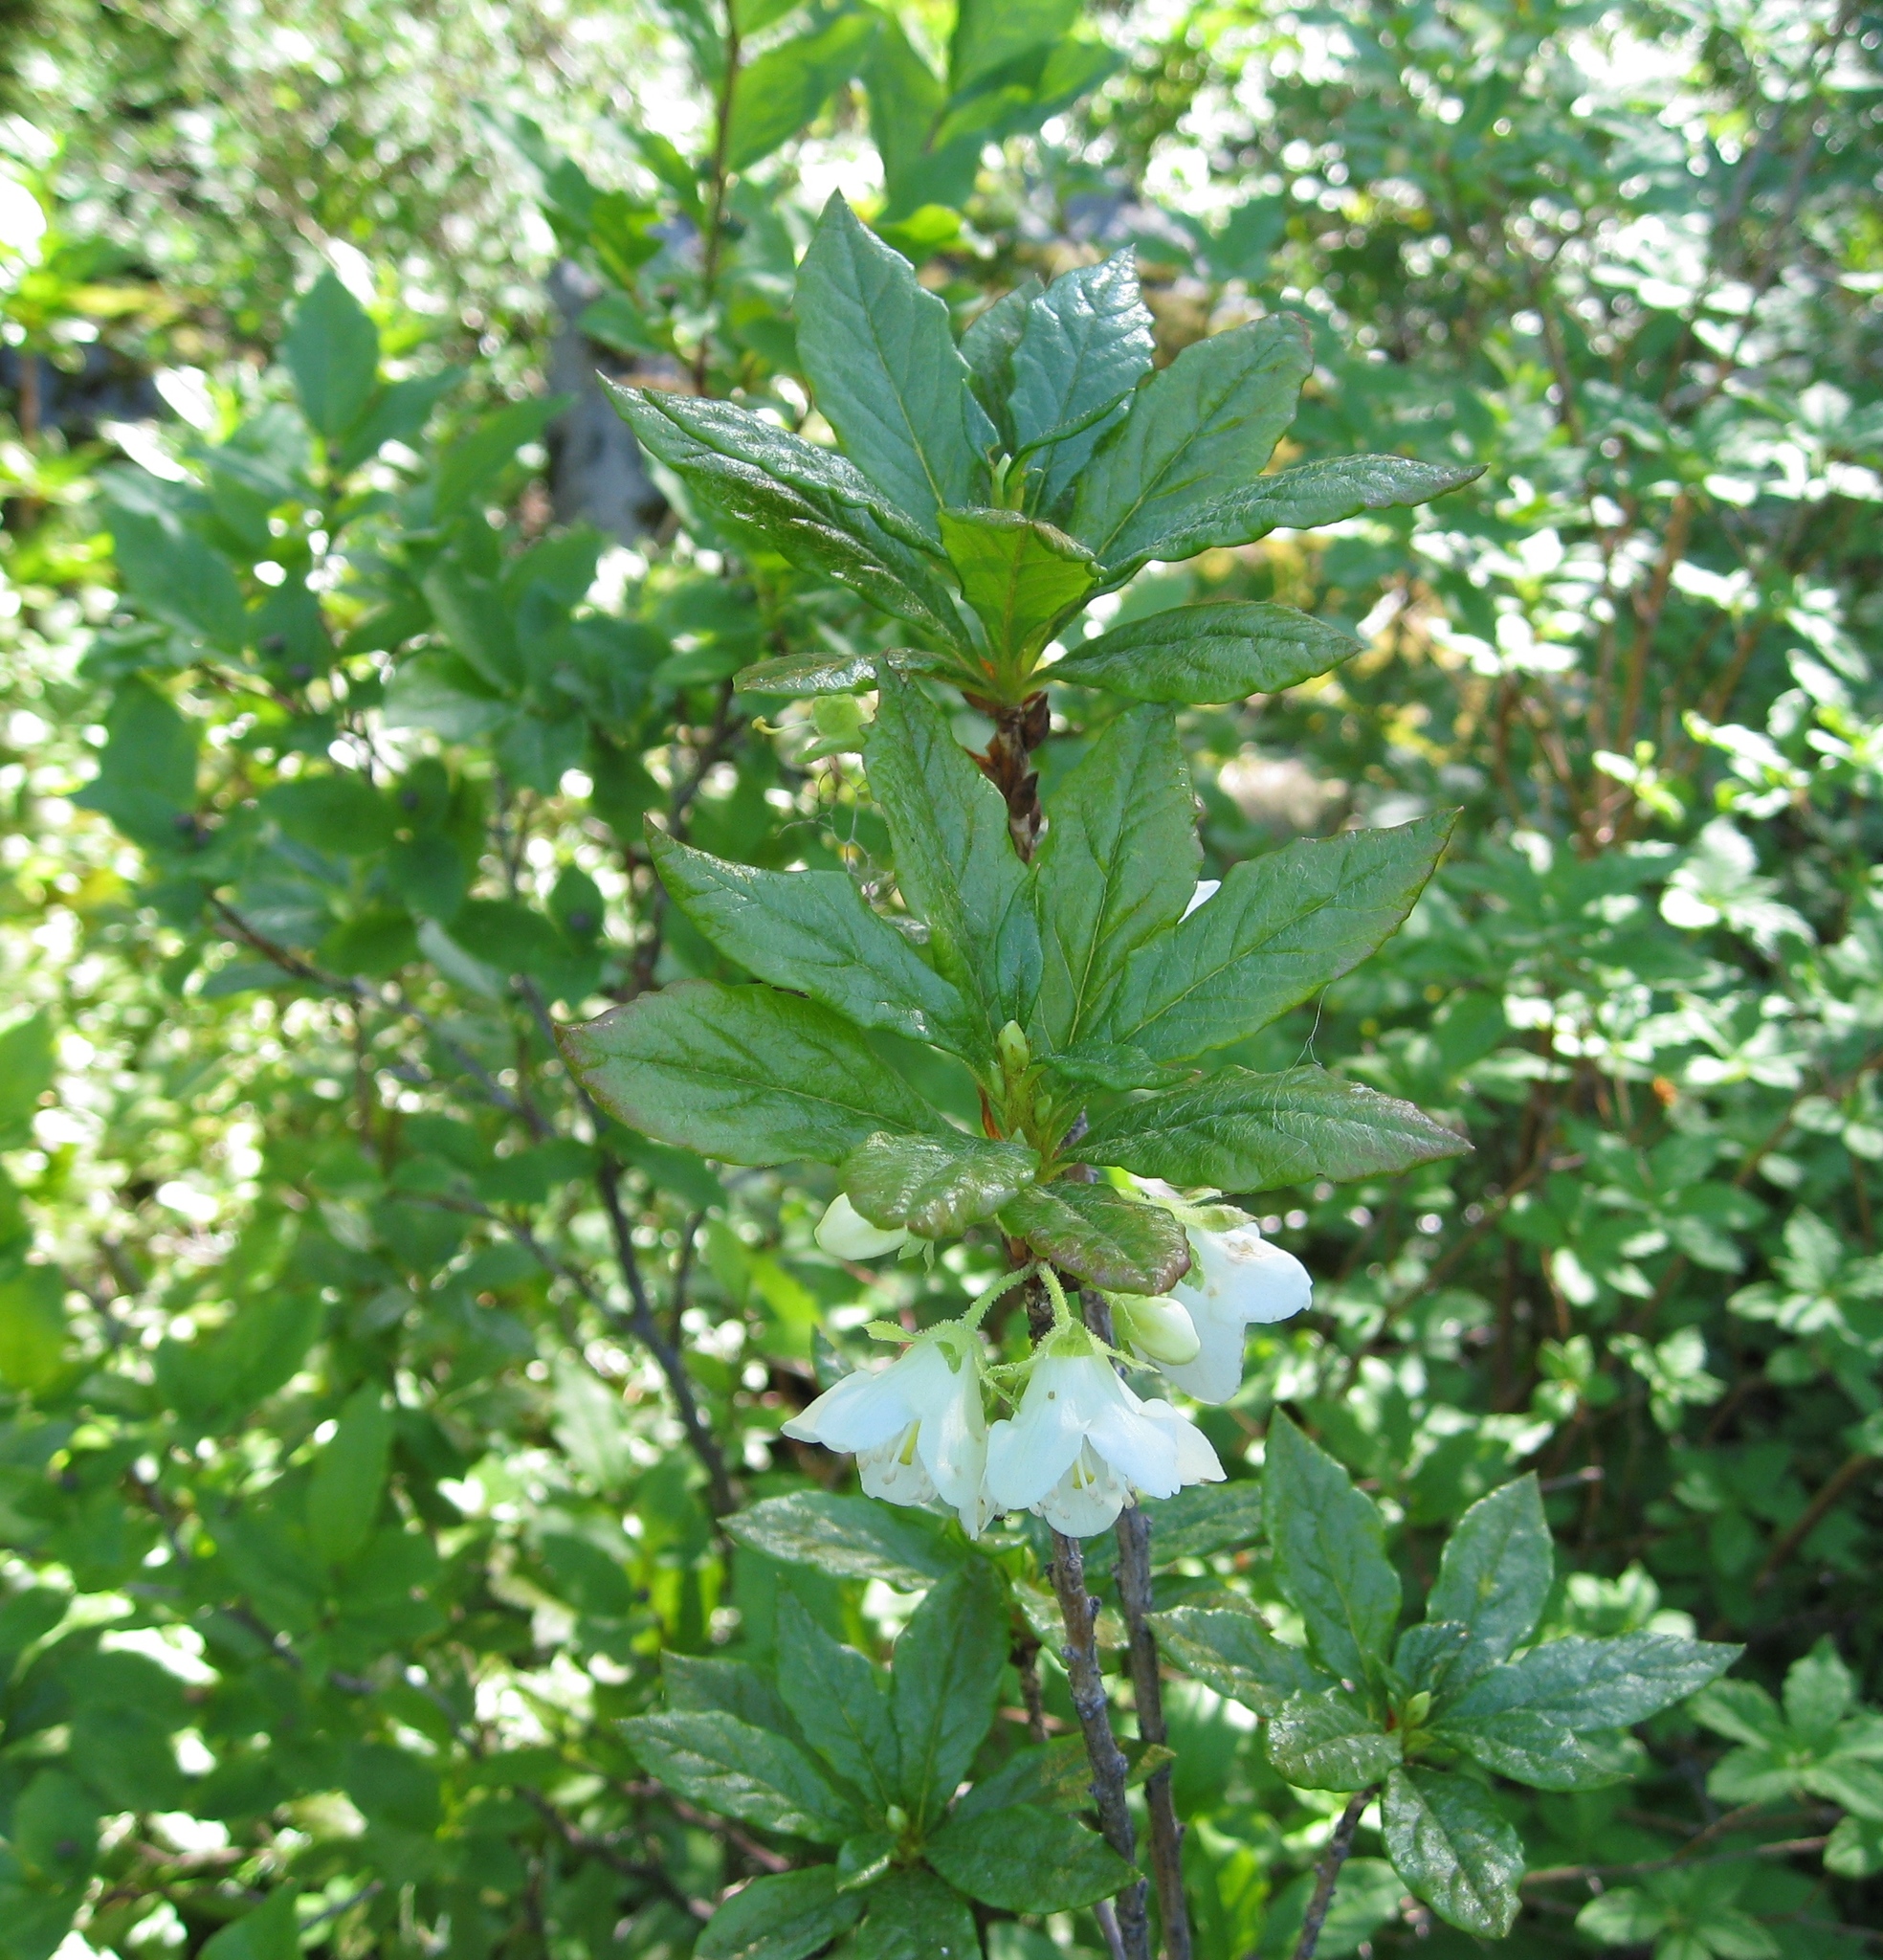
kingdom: Plantae
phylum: Tracheophyta
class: Magnoliopsida
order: Ericales
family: Ericaceae
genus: Rhododendron
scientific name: Rhododendron albiflorum
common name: White rhododendron
